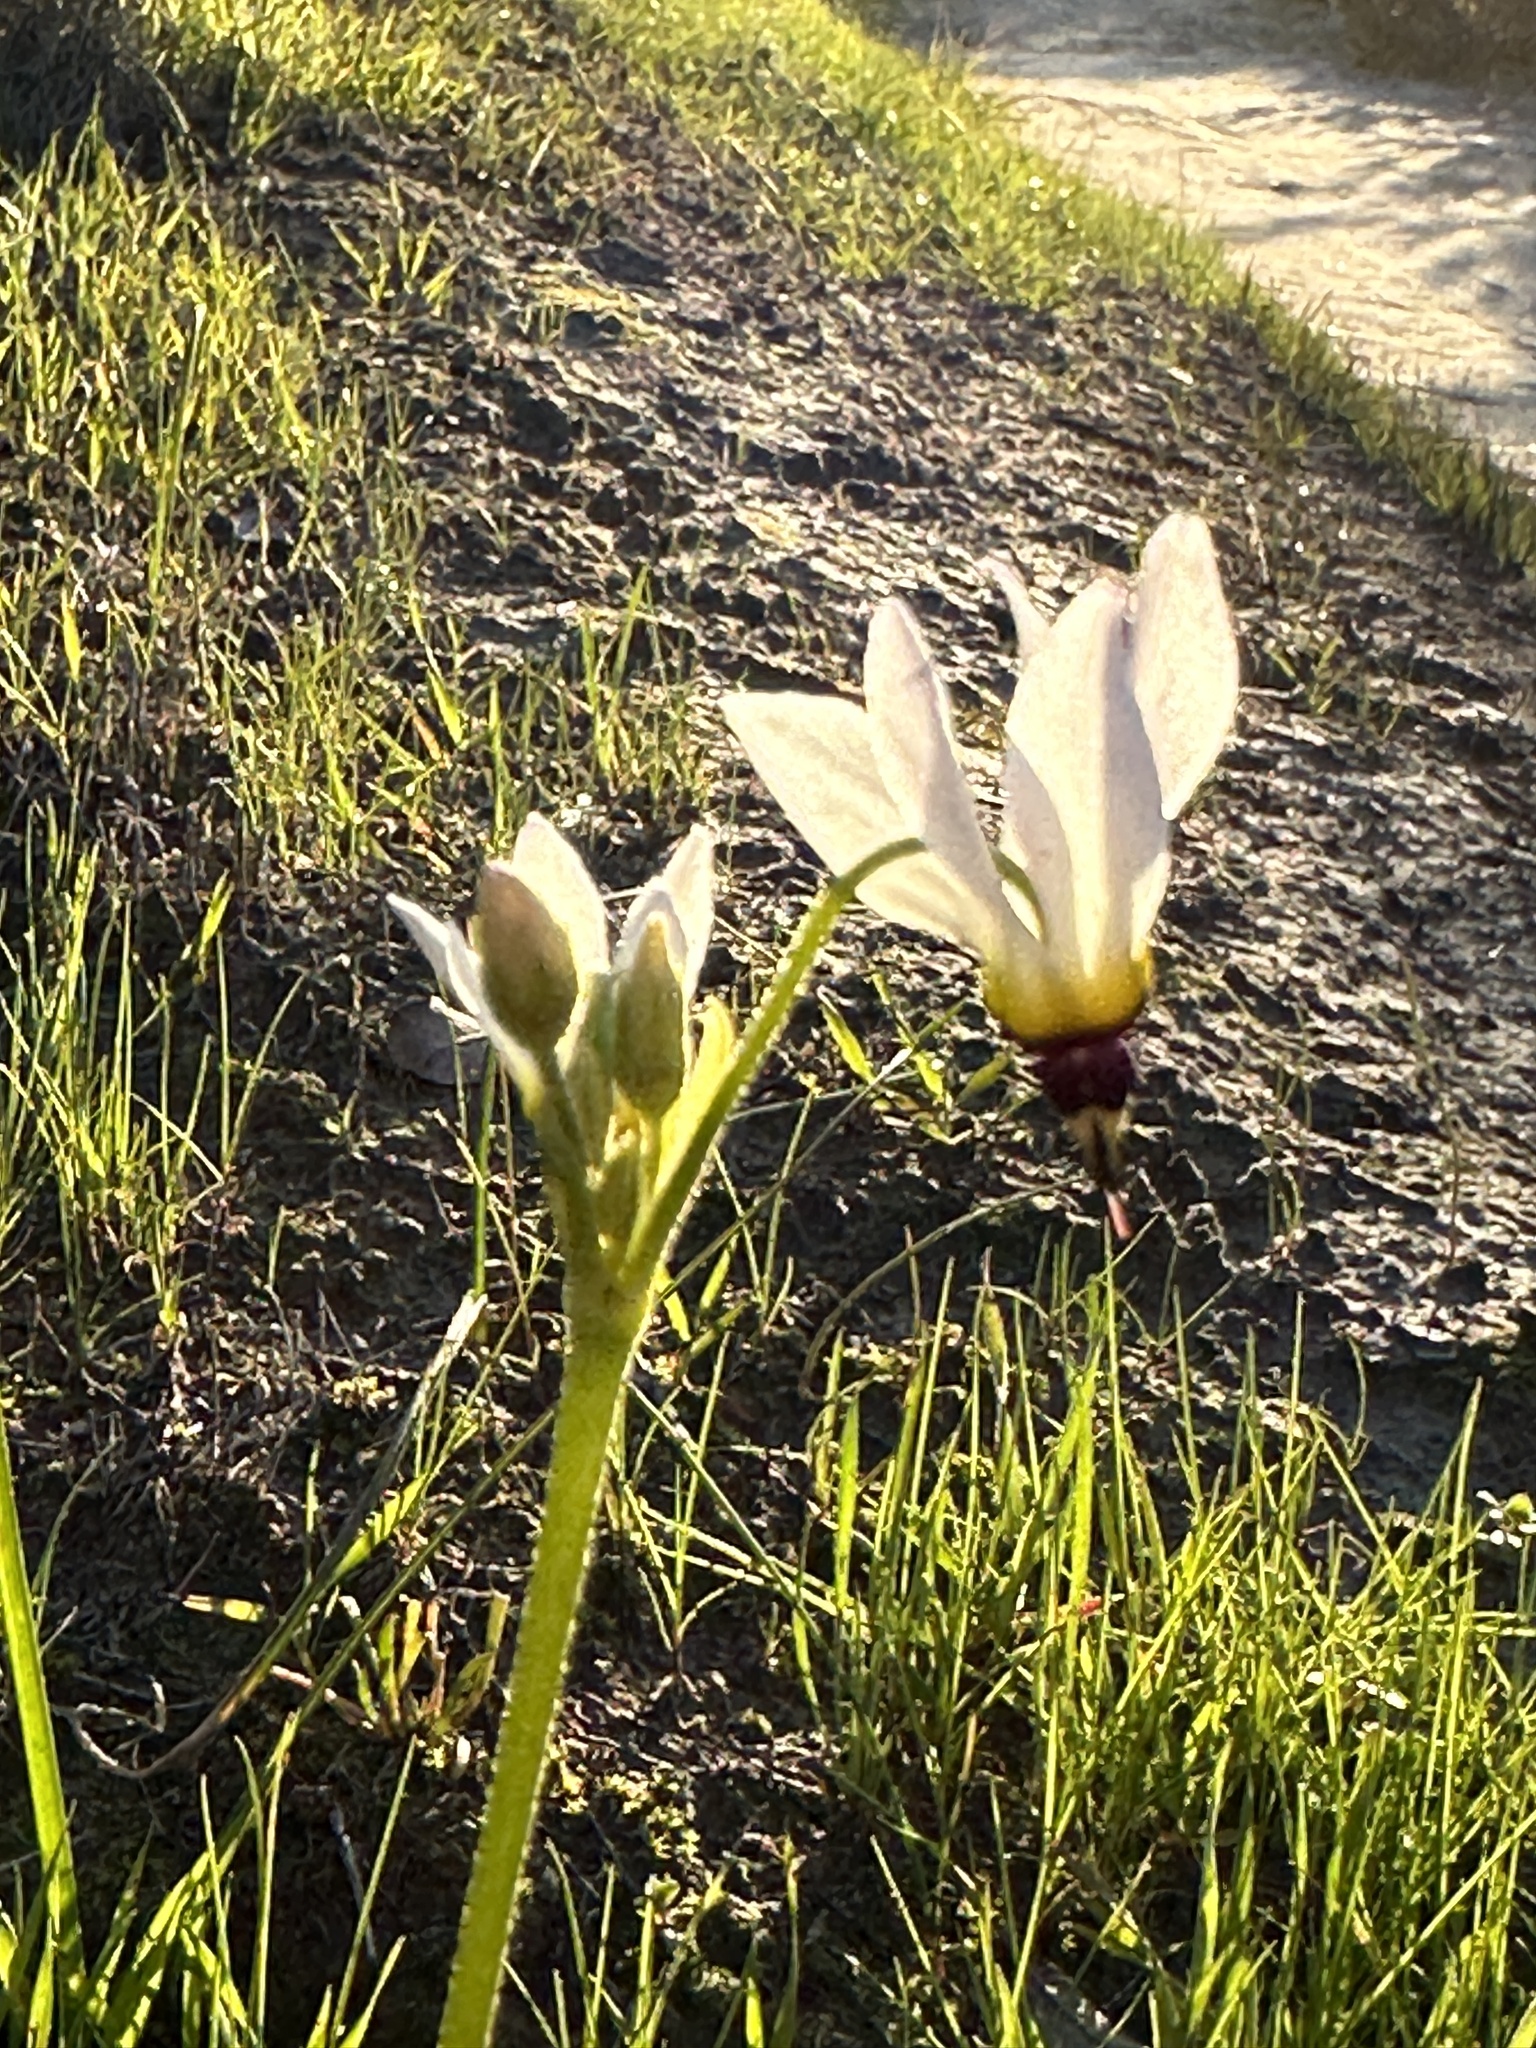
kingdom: Plantae
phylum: Tracheophyta
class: Magnoliopsida
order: Ericales
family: Primulaceae
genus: Dodecatheon
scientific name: Dodecatheon clevelandii
